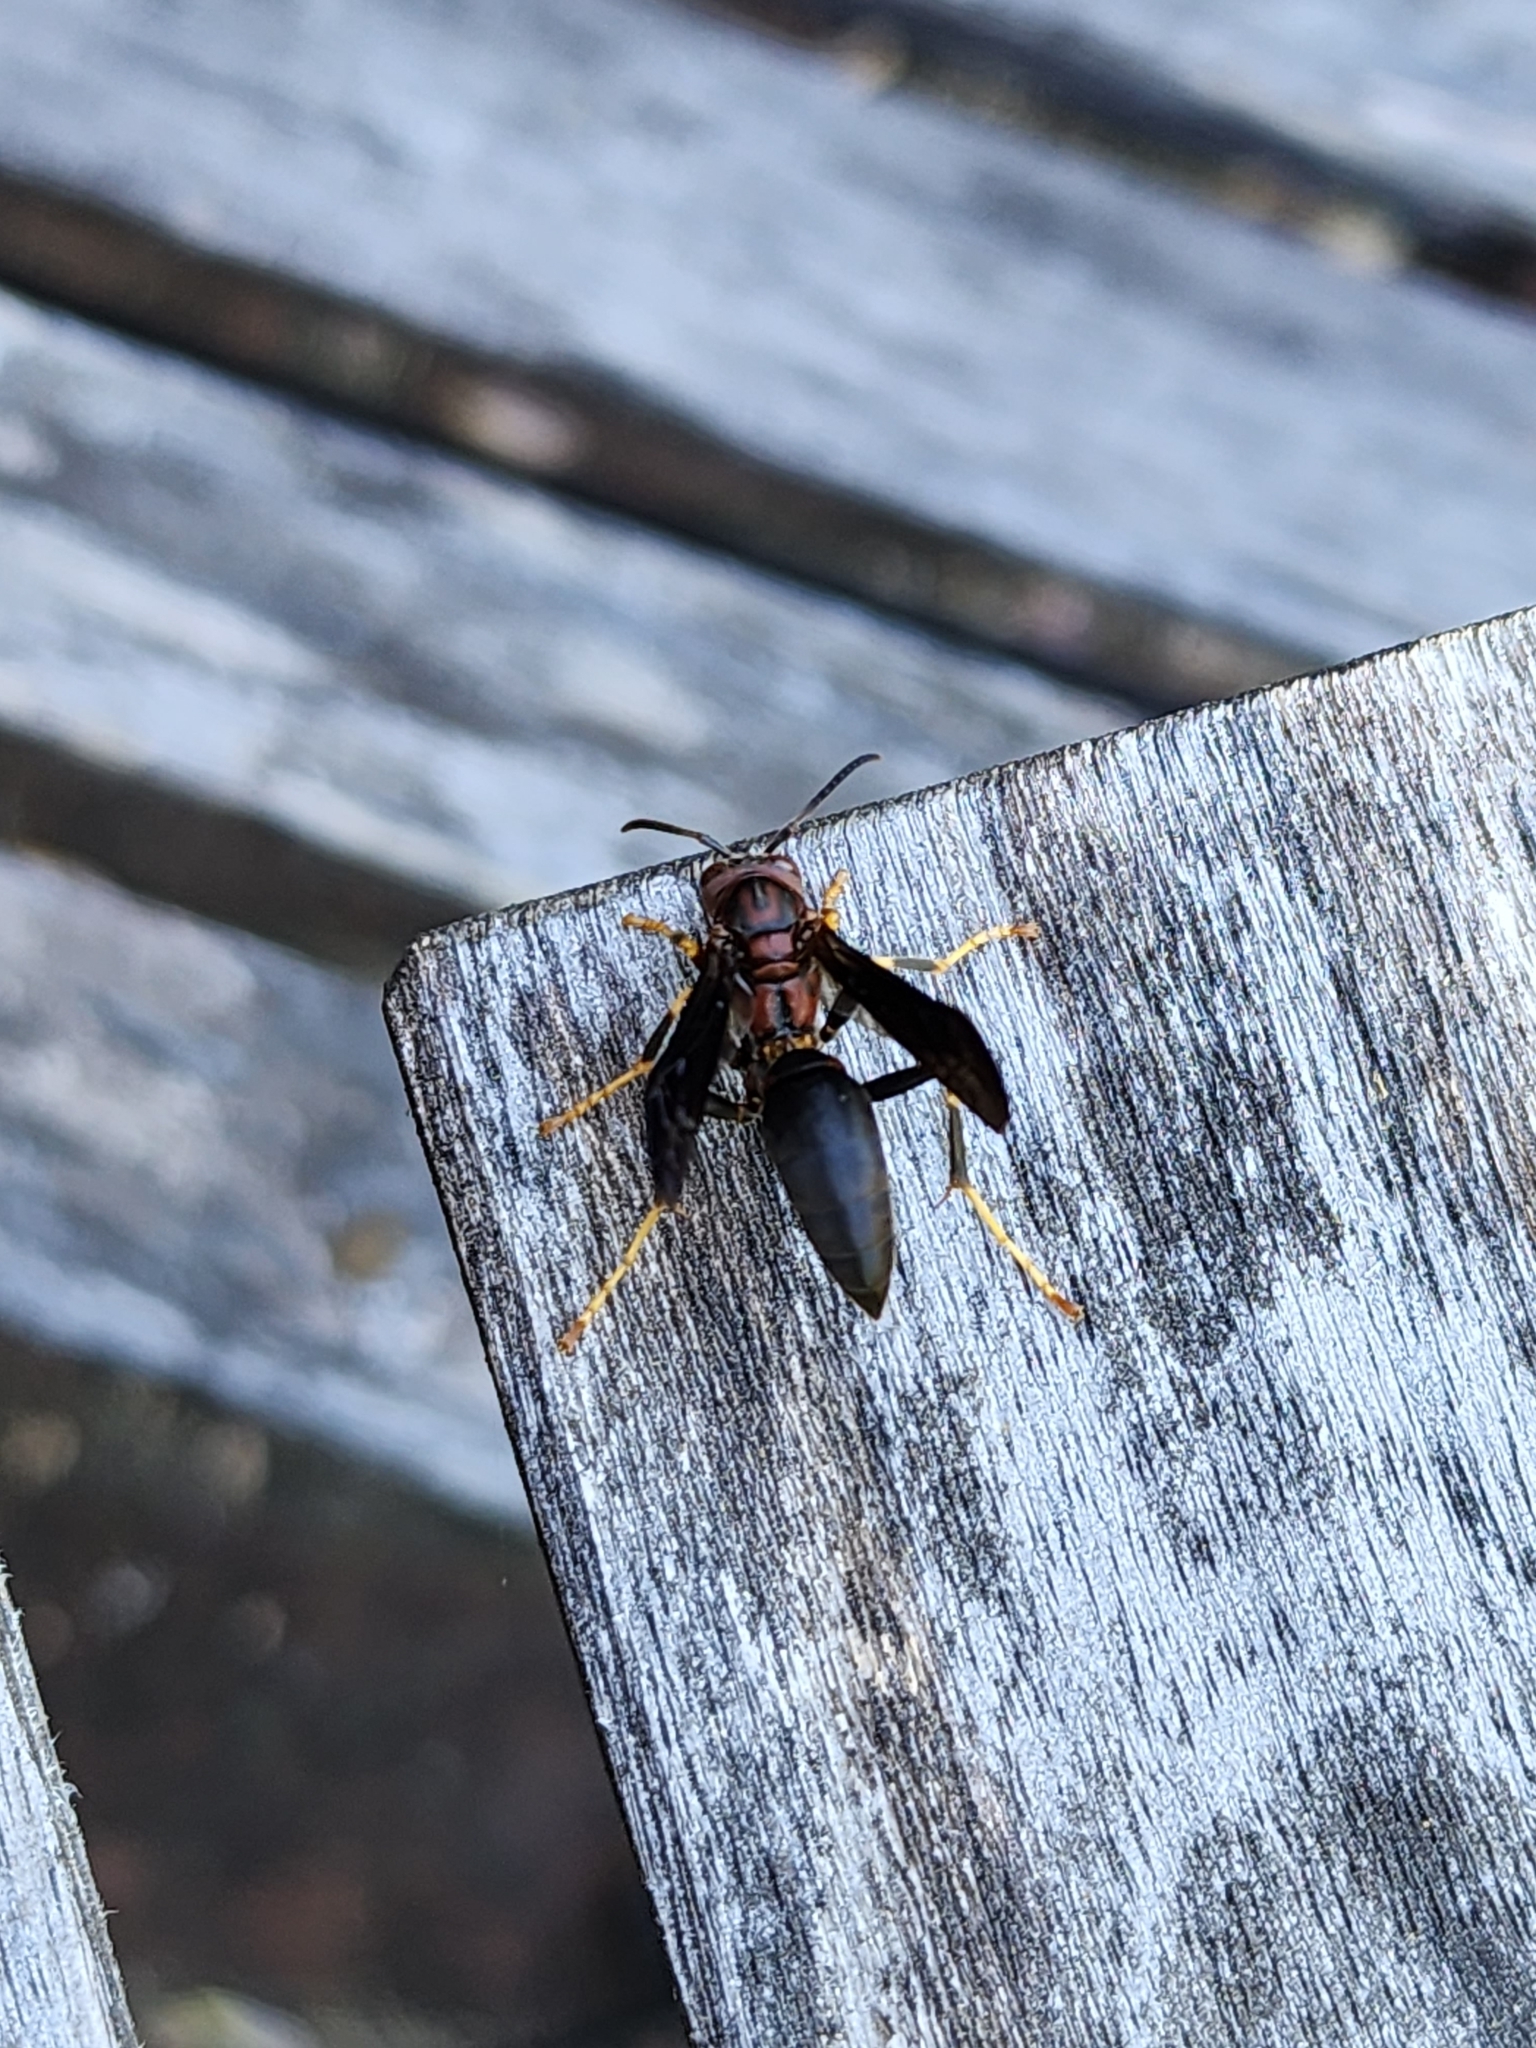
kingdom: Animalia
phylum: Arthropoda
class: Insecta
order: Hymenoptera
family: Eumenidae
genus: Polistes
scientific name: Polistes metricus
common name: Metric paper wasp
